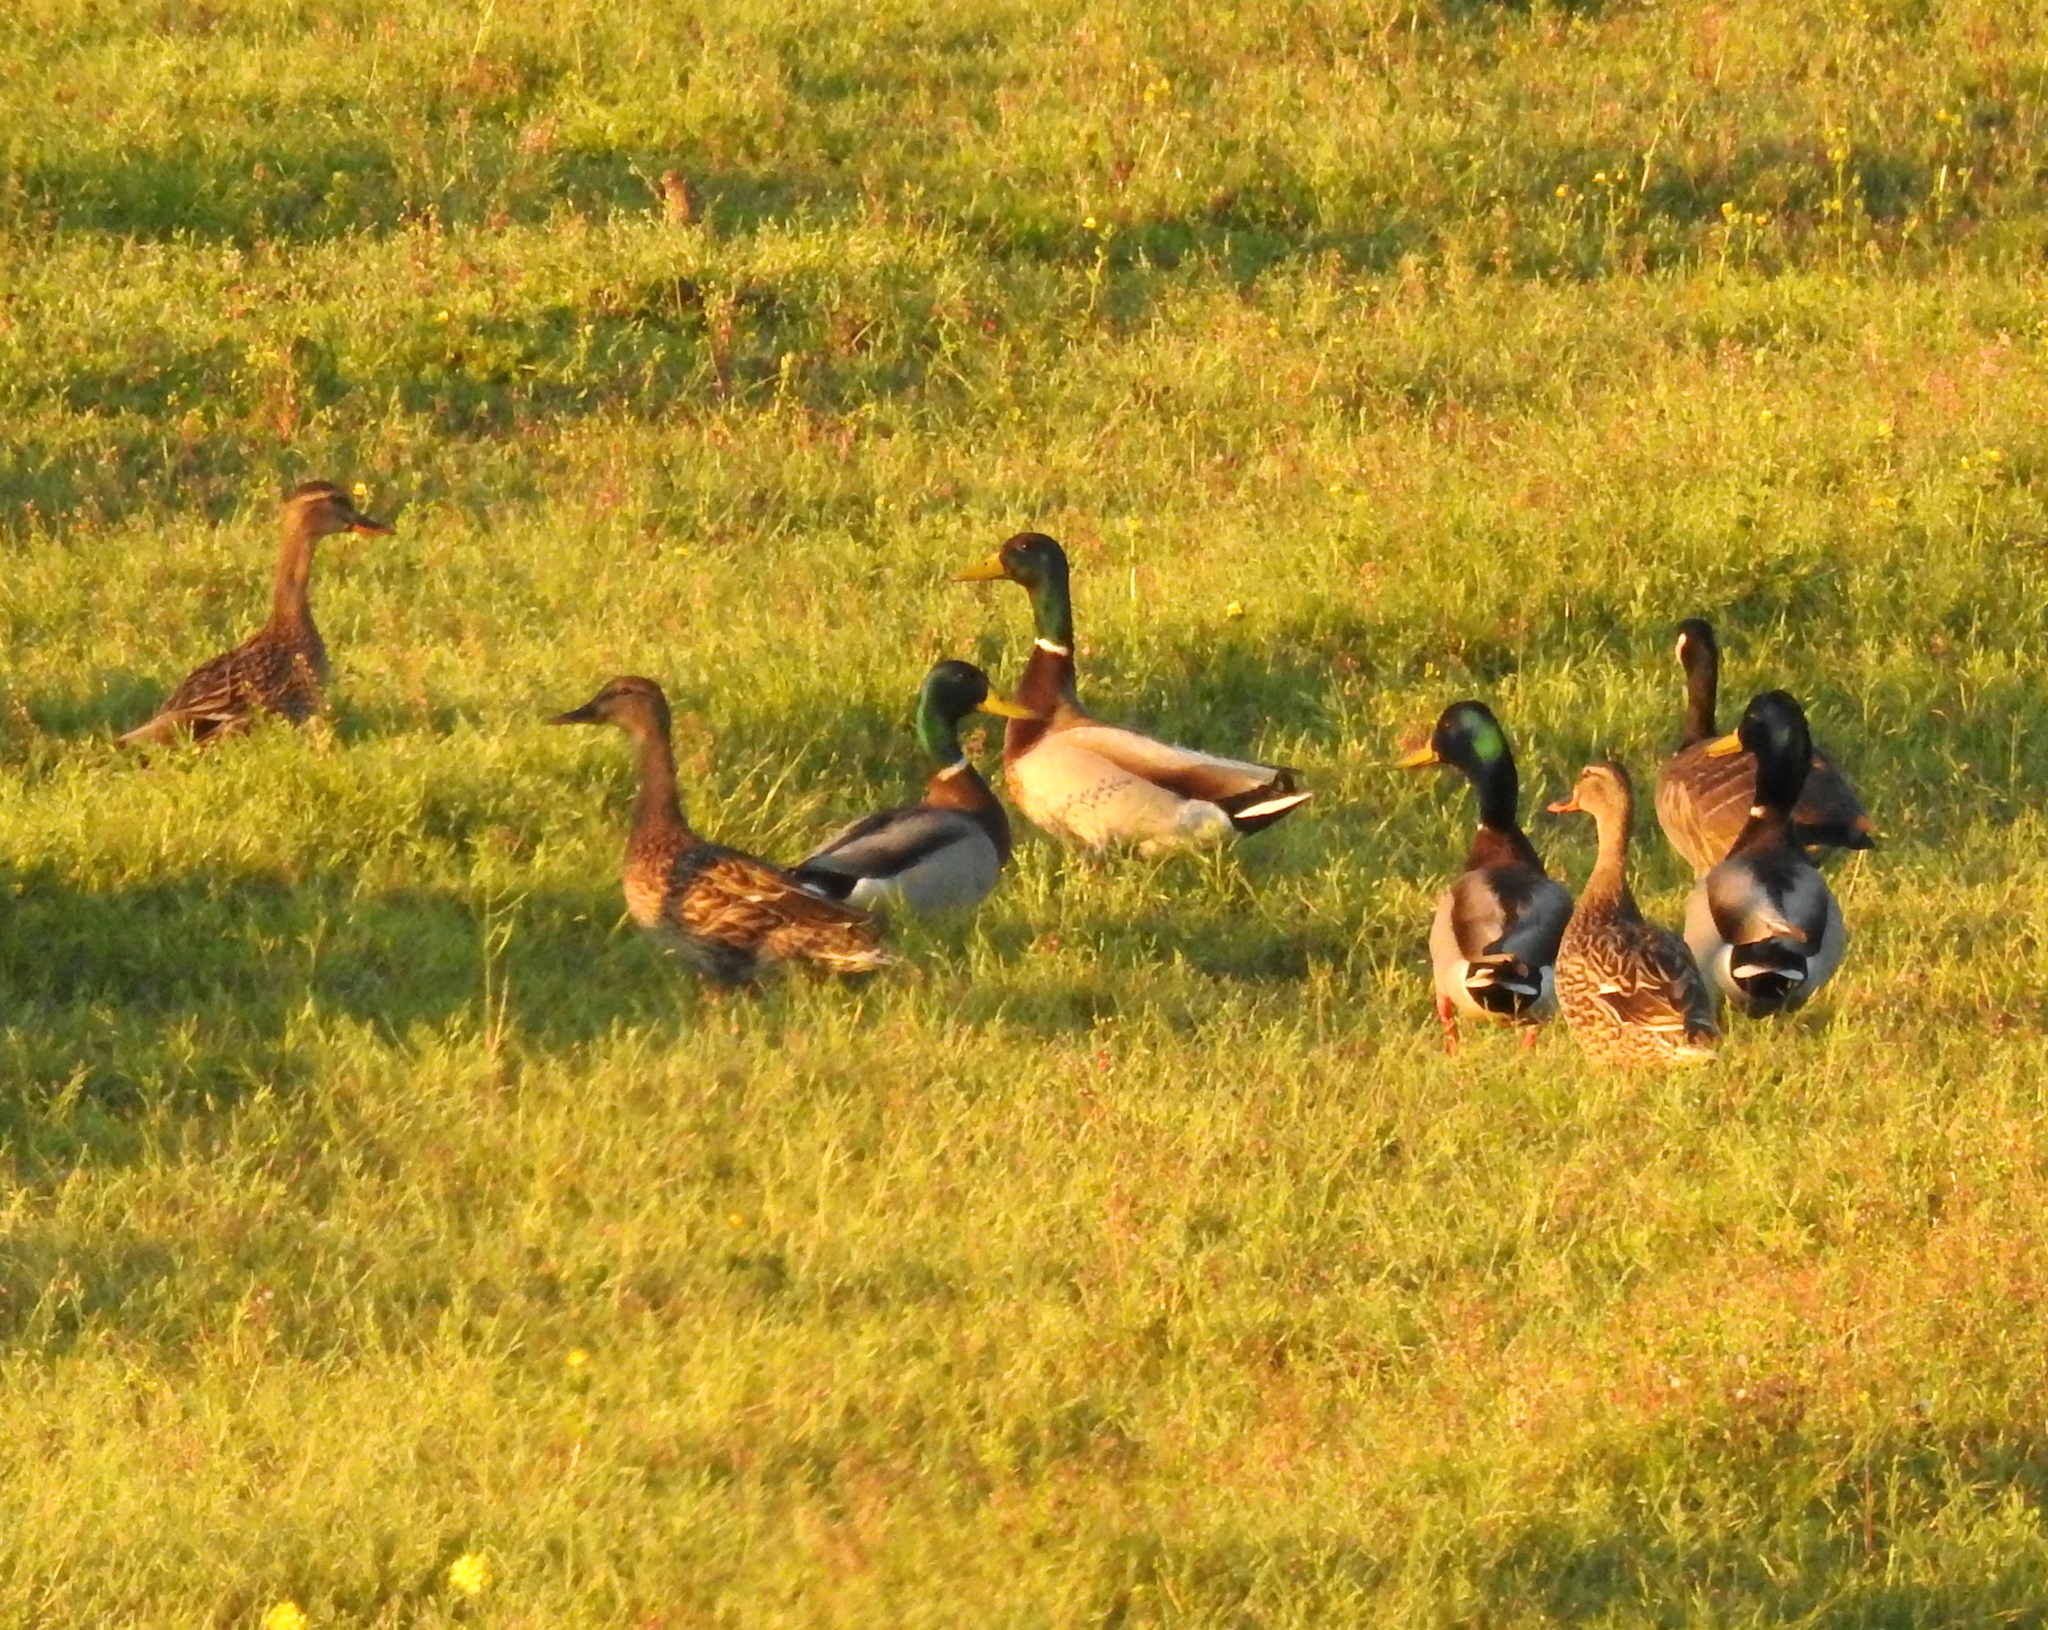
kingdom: Animalia
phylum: Chordata
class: Aves
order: Anseriformes
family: Anatidae
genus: Anas
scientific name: Anas platyrhynchos
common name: Mallard
